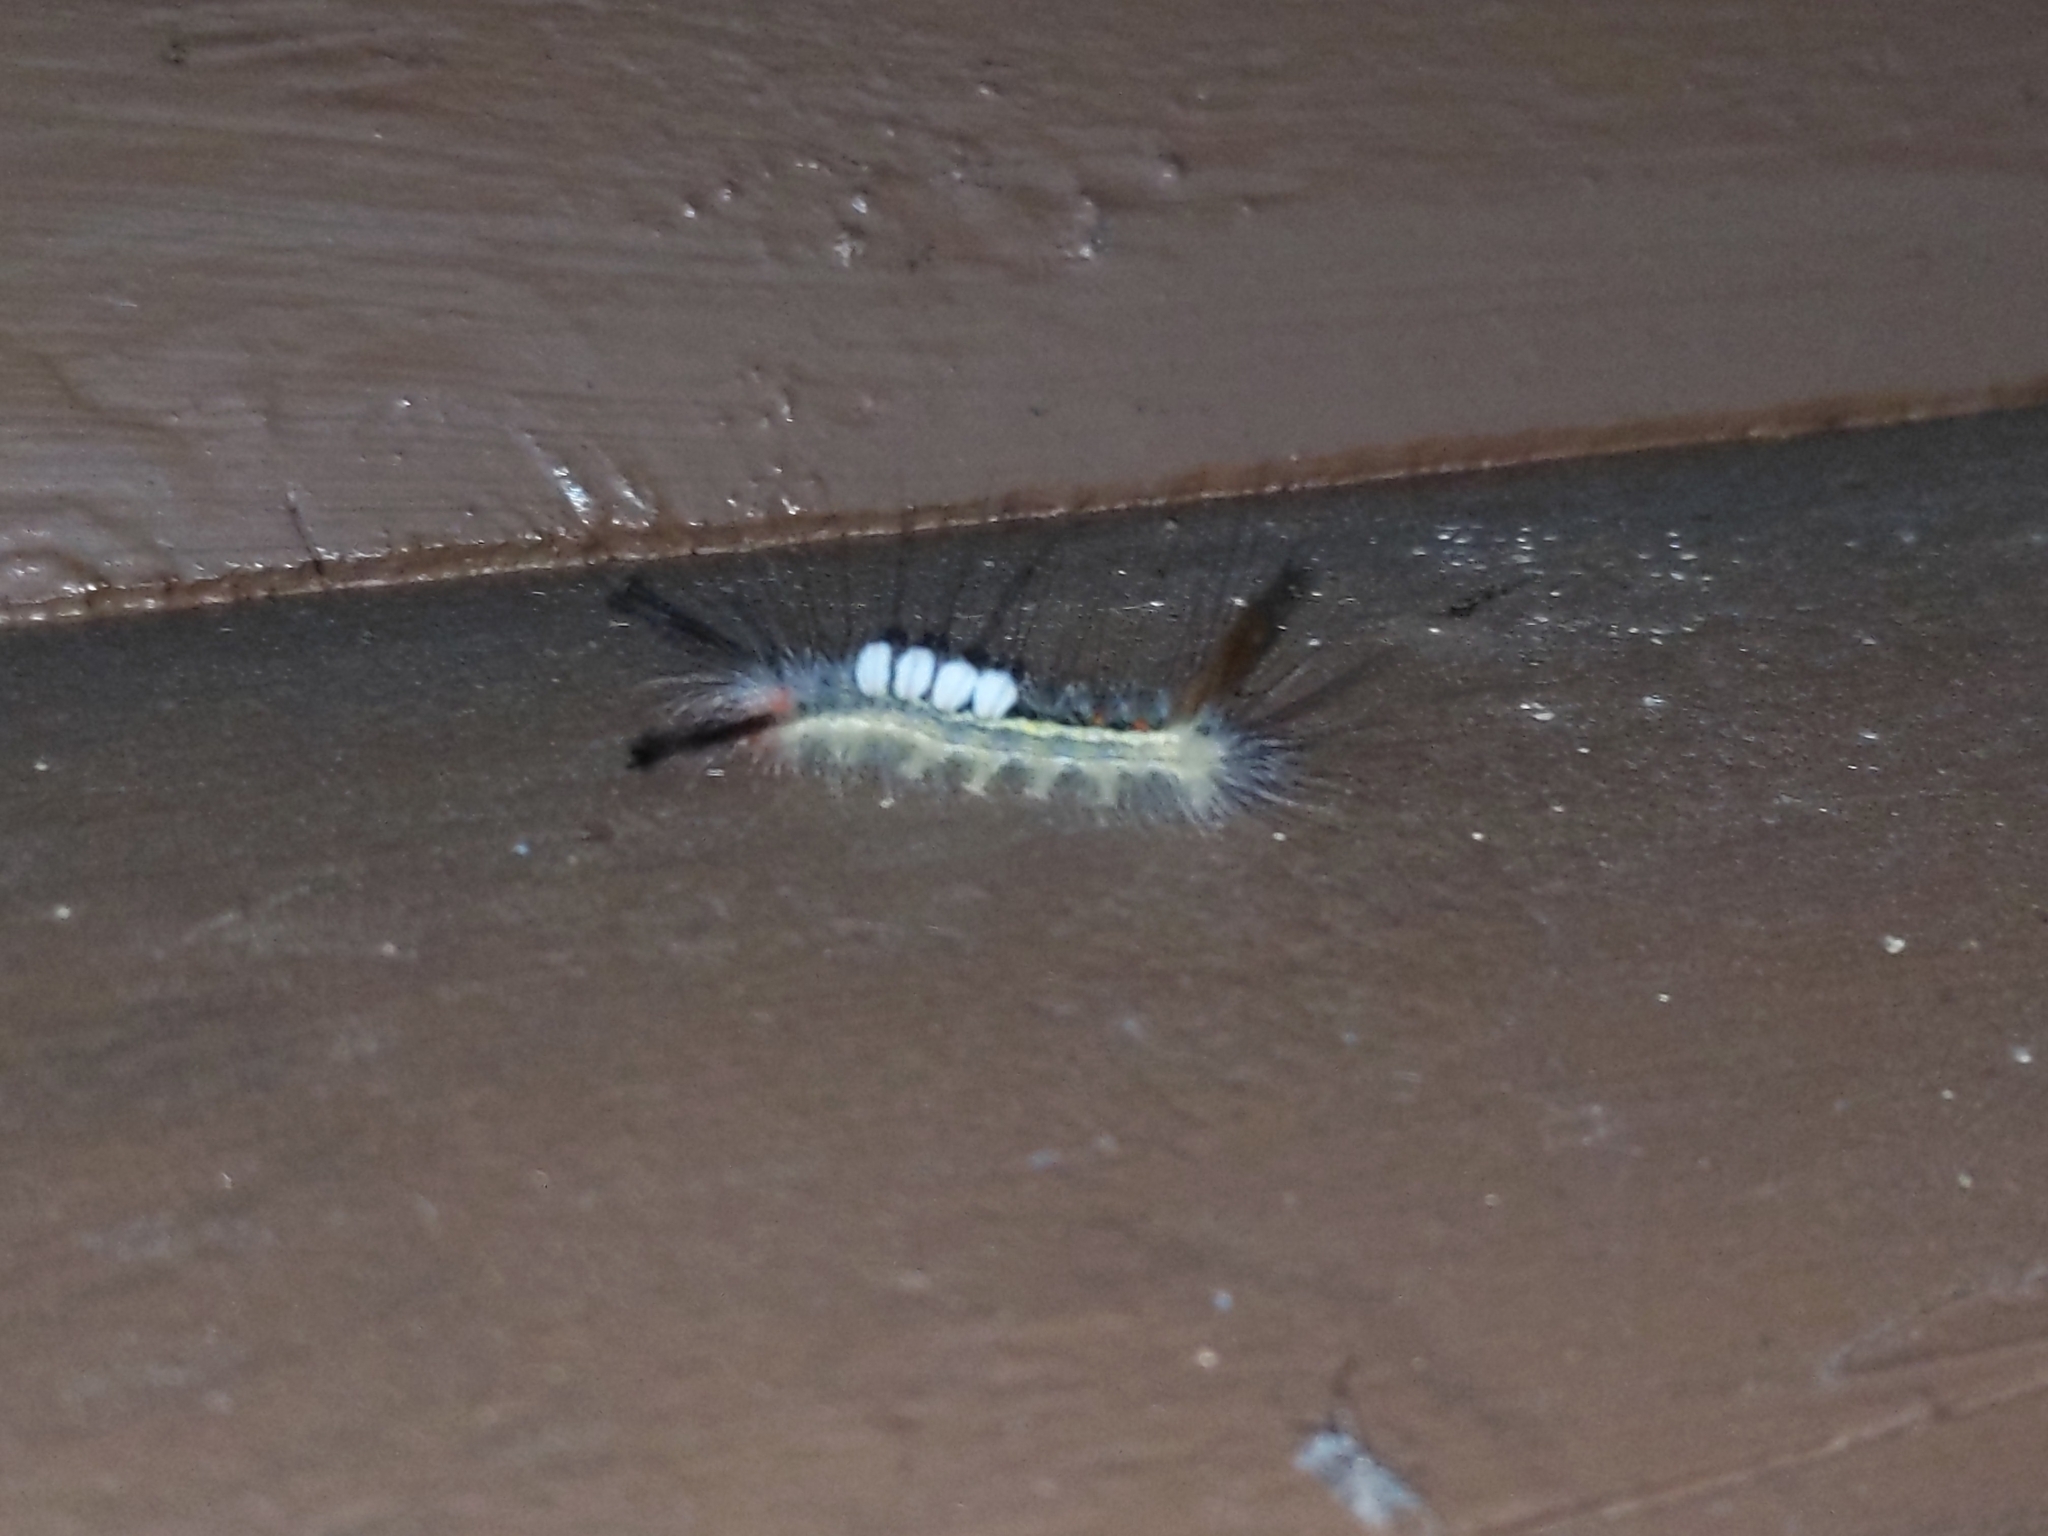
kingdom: Animalia
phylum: Arthropoda
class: Insecta
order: Lepidoptera
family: Erebidae
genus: Orgyia
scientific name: Orgyia leucostigma
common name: White-marked tussock moth
